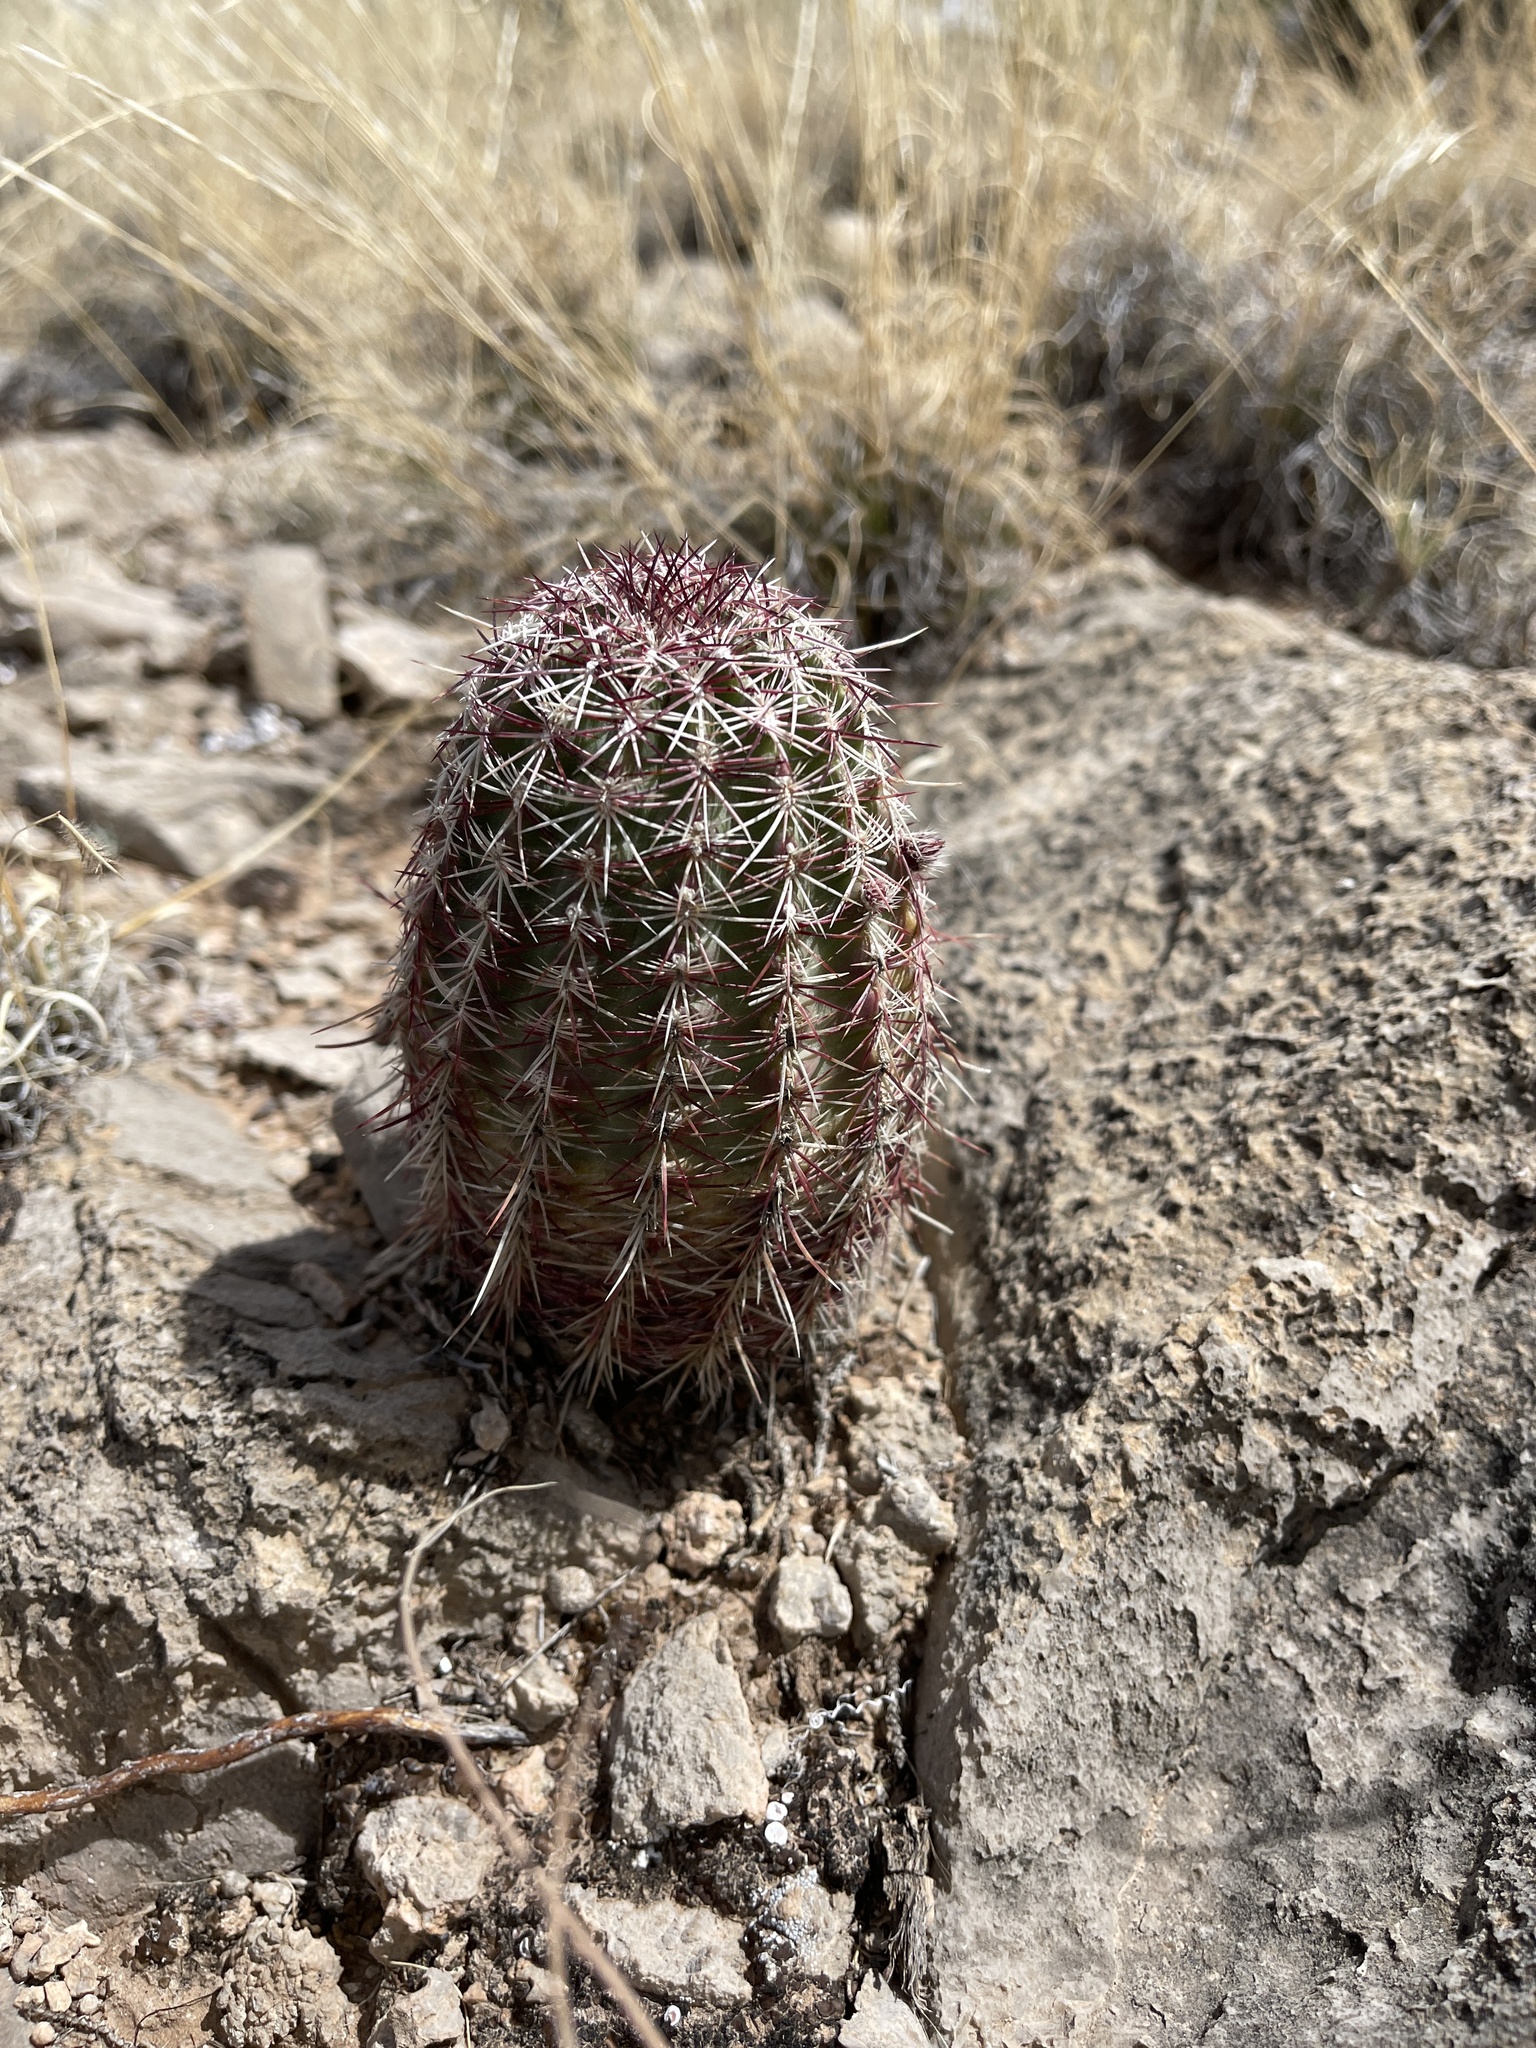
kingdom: Plantae
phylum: Tracheophyta
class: Magnoliopsida
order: Caryophyllales
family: Cactaceae
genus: Echinocereus
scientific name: Echinocereus viridiflorus
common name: Nylon hedgehog cactus
